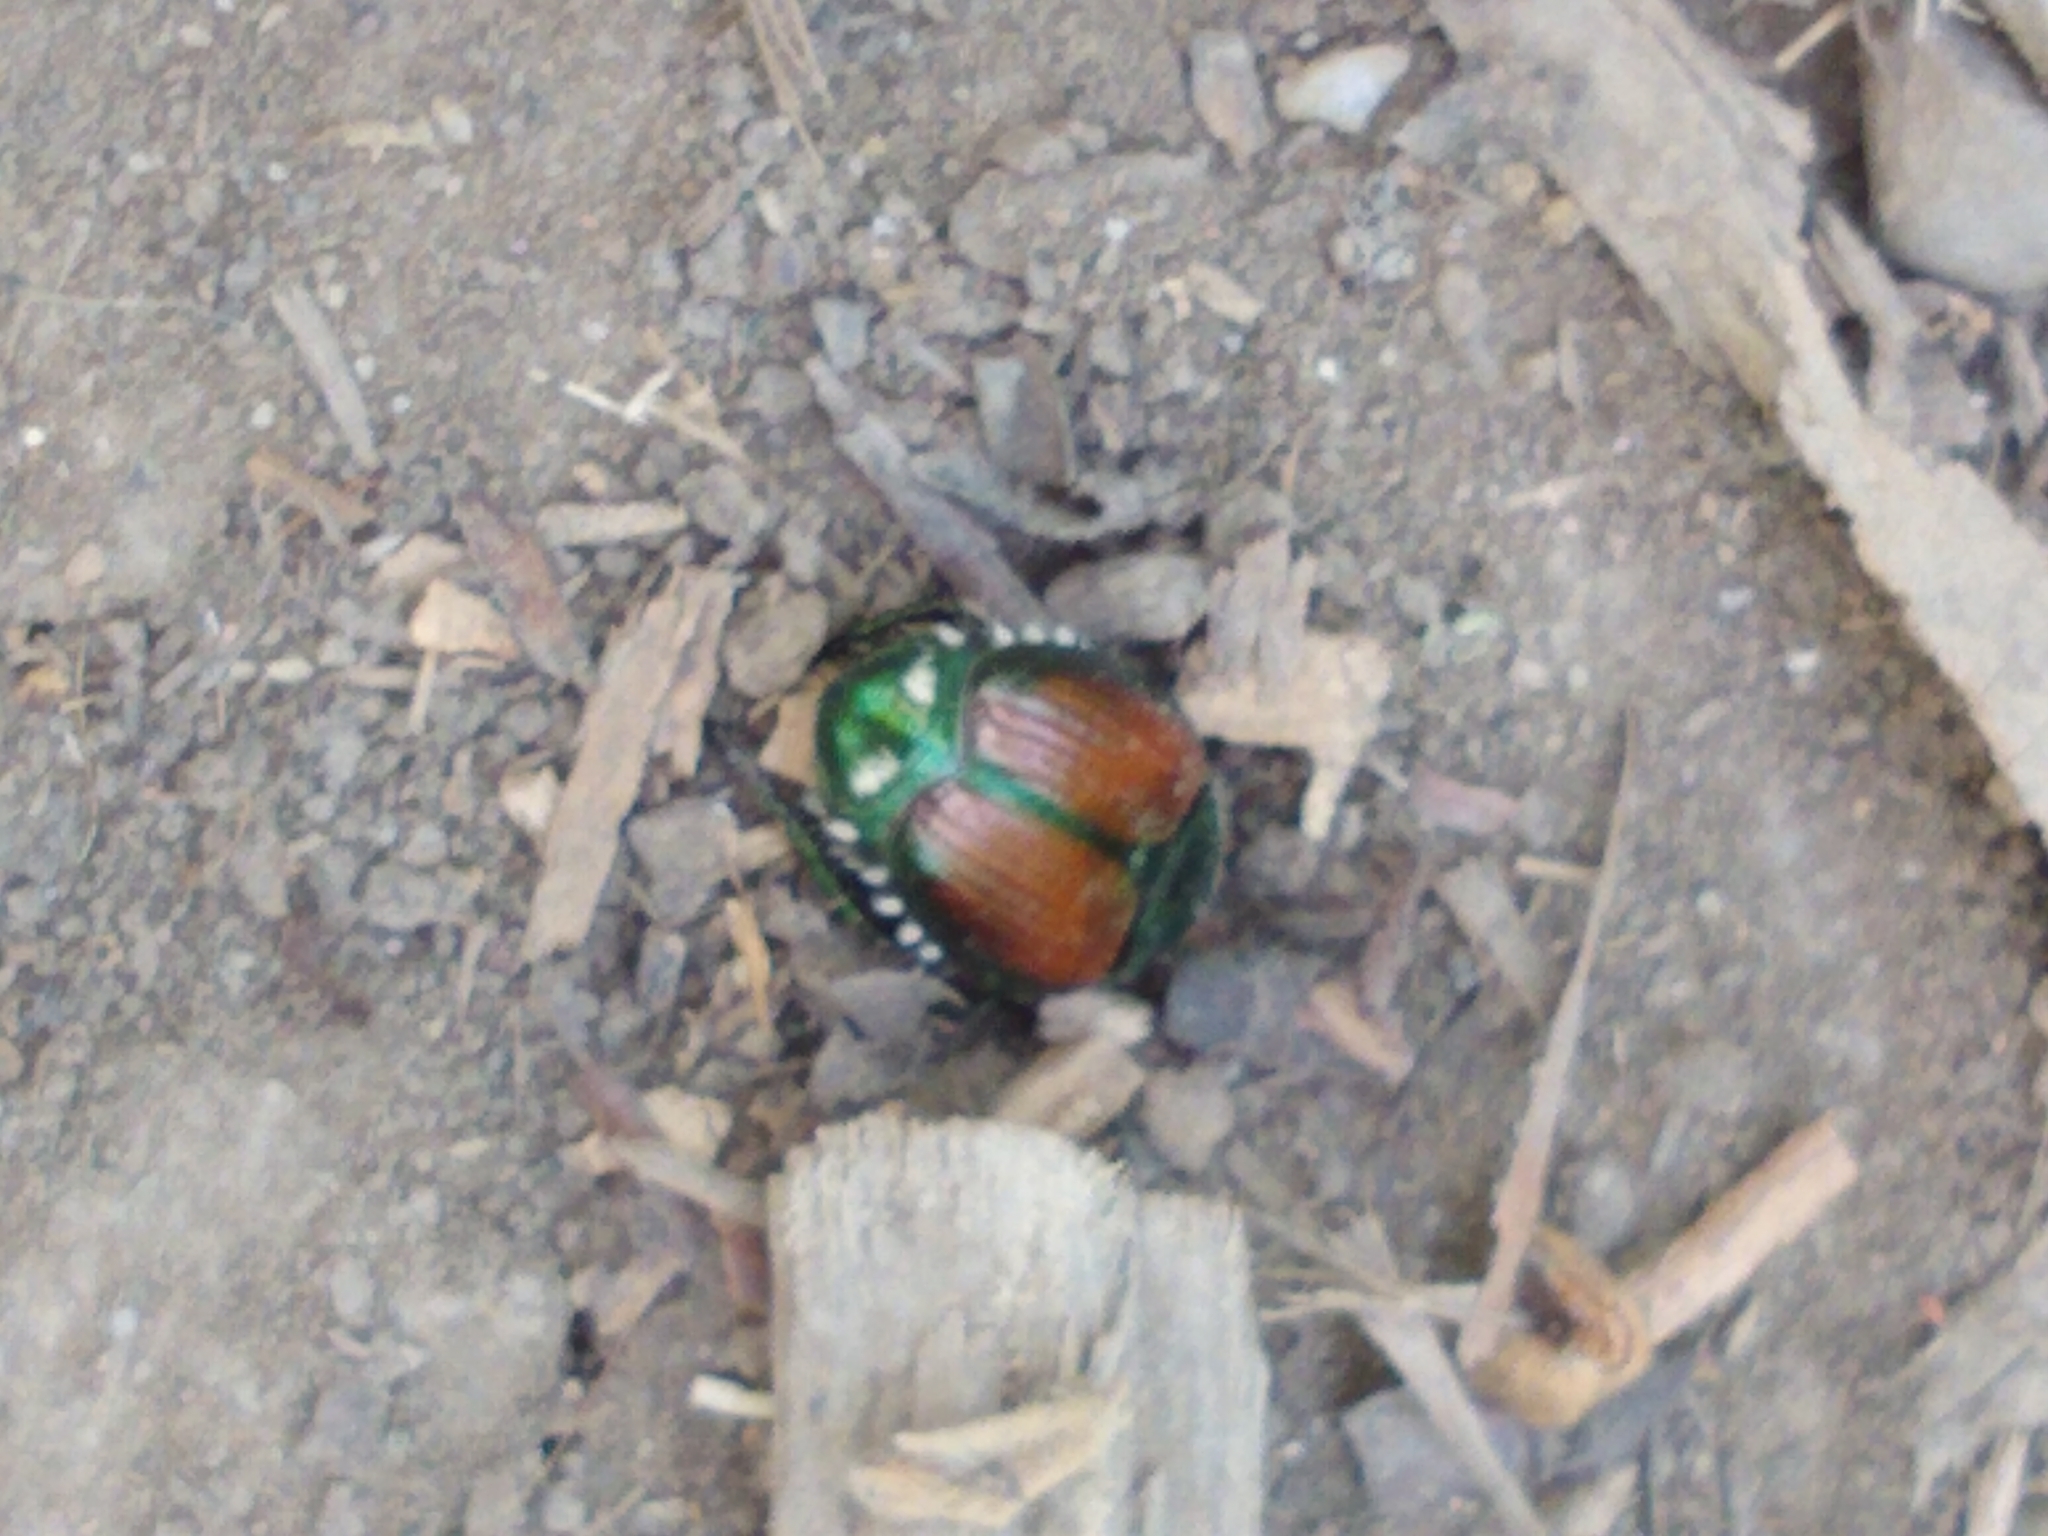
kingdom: Animalia
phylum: Arthropoda
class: Insecta
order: Coleoptera
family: Scarabaeidae
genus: Popillia
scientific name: Popillia japonica
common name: Japanese beetle
